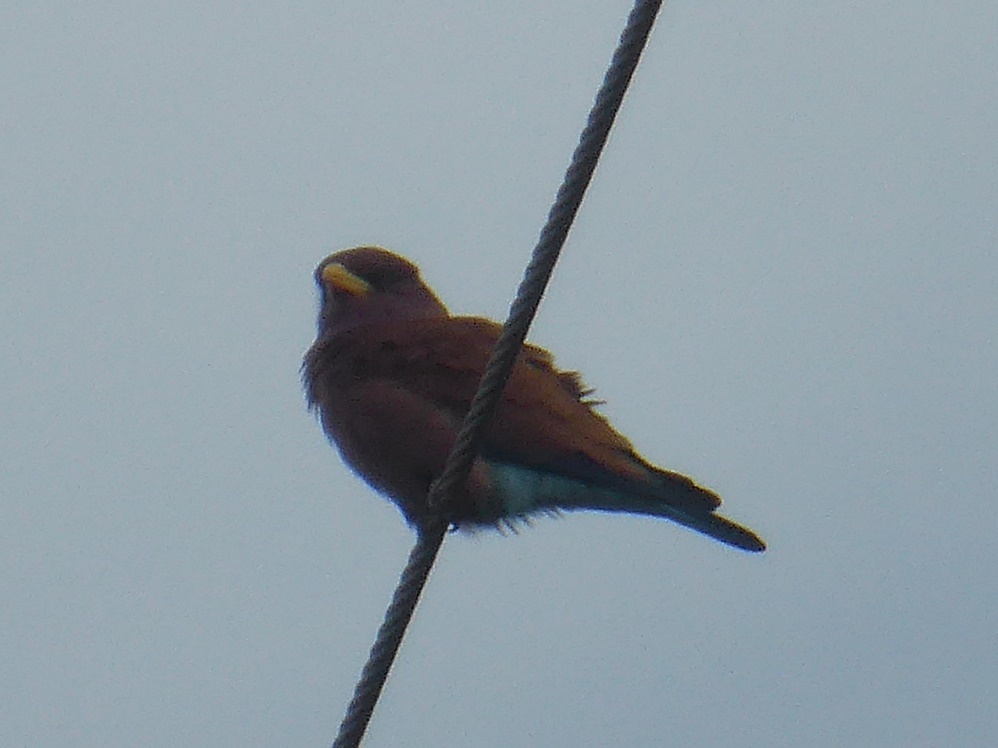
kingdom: Animalia
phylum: Chordata
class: Aves
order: Coraciiformes
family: Coraciidae
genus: Eurystomus
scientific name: Eurystomus glaucurus
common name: Broad-billed roller
